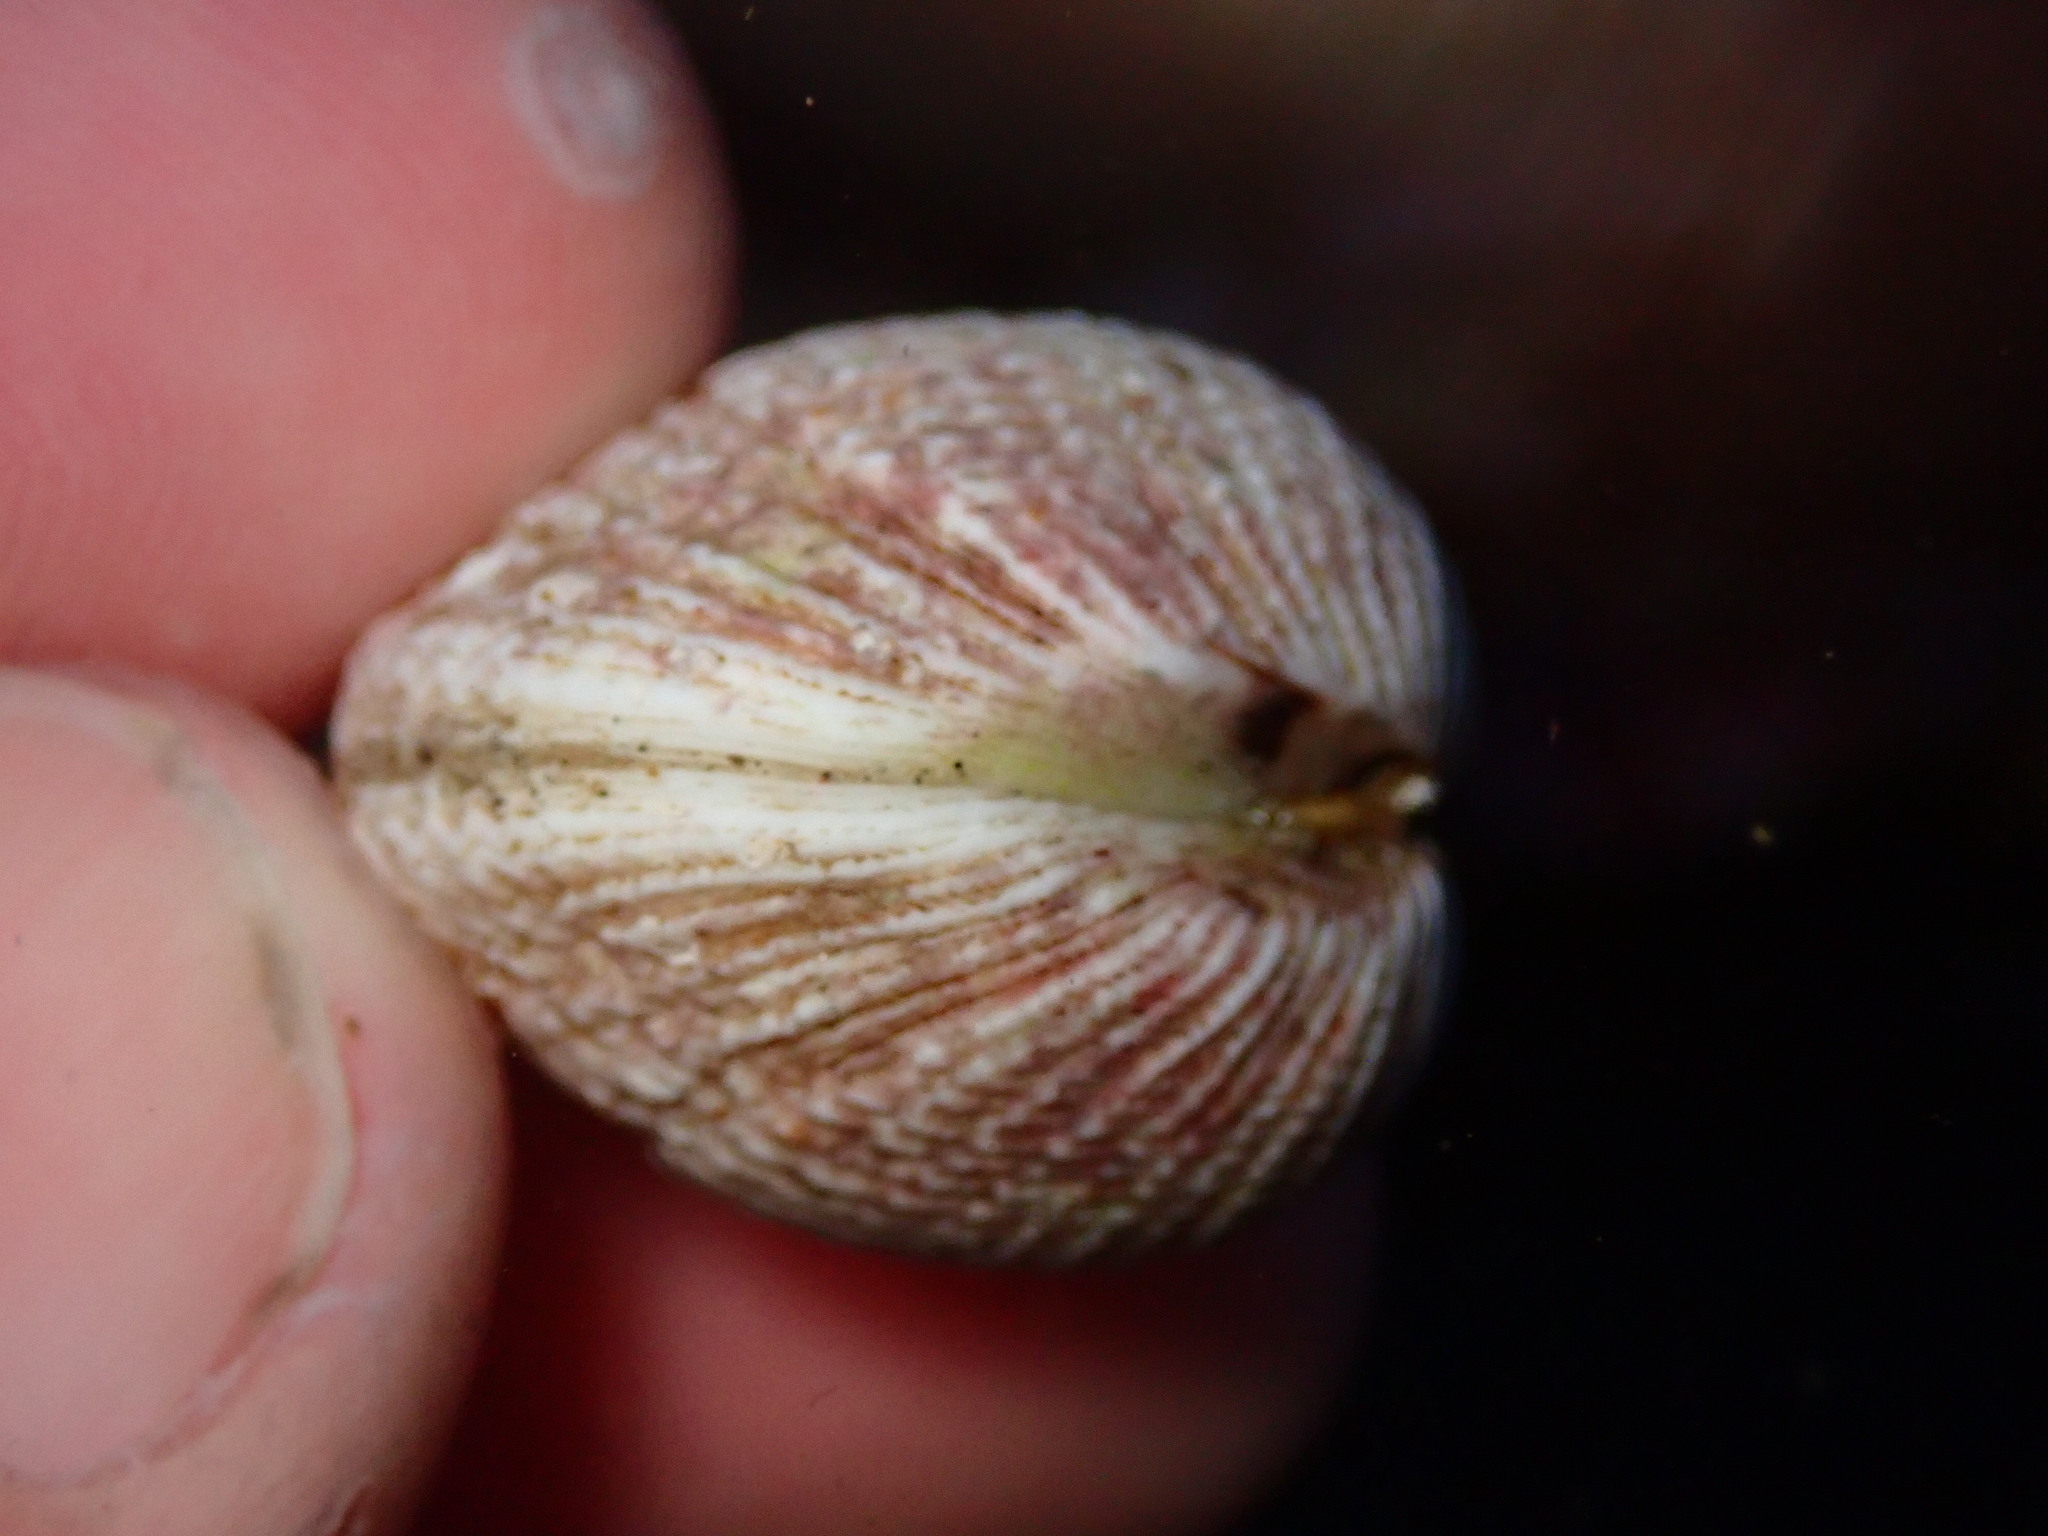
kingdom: Animalia
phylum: Mollusca
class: Bivalvia
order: Venerida
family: Veneridae
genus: Chione
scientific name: Chione undatella
